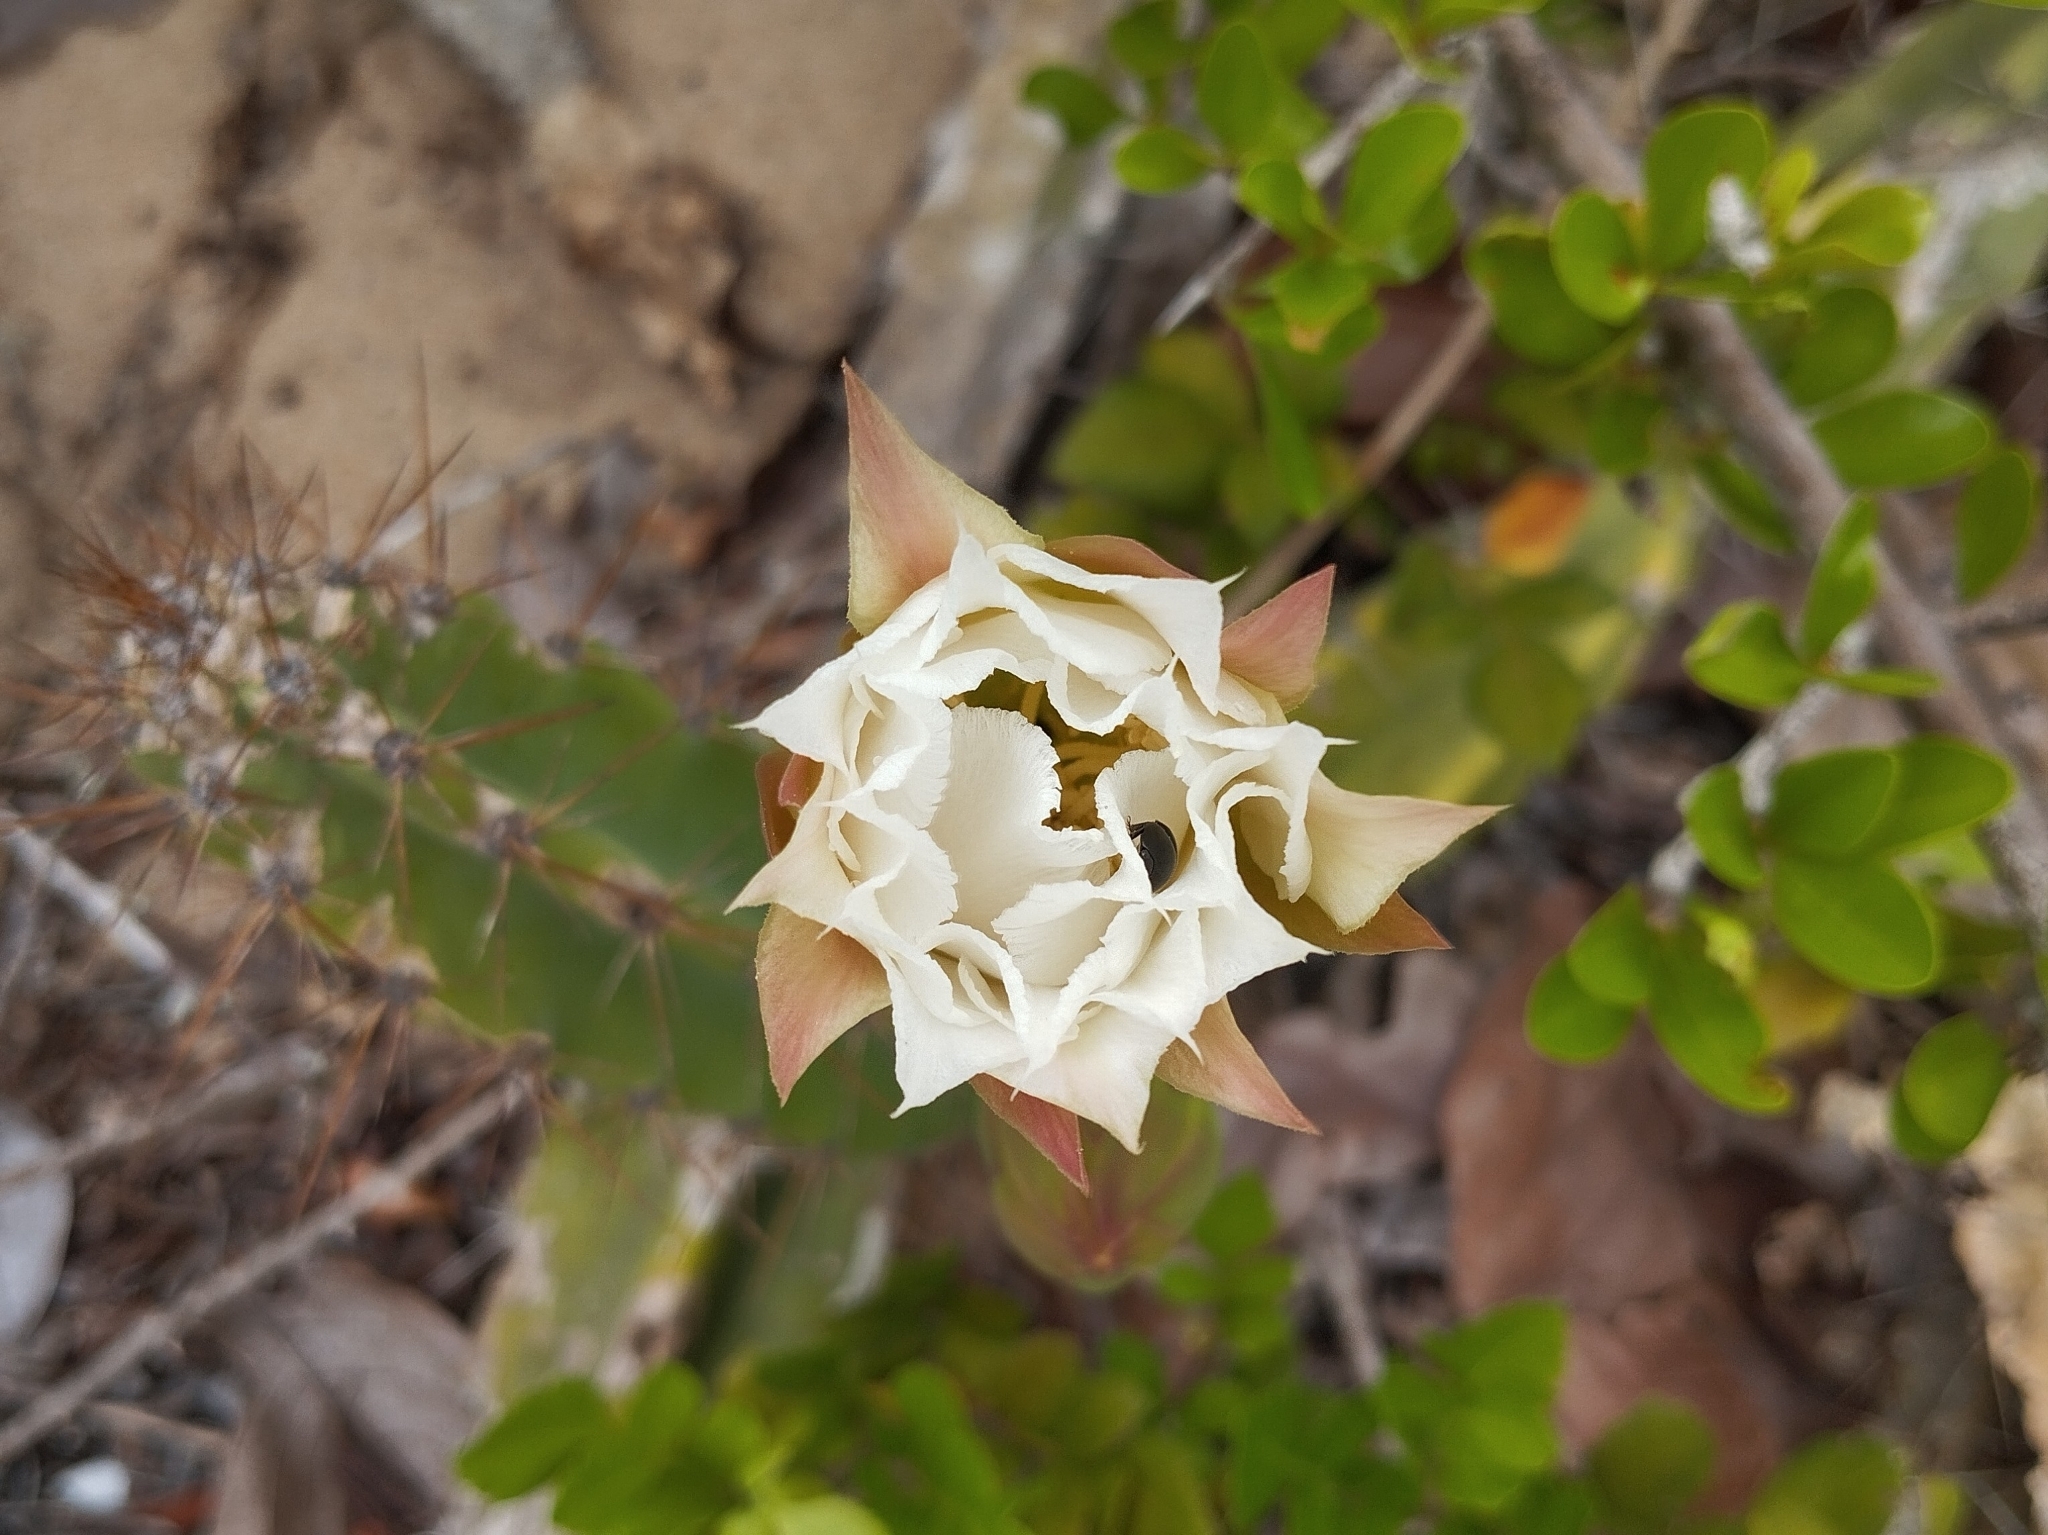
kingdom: Plantae
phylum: Tracheophyta
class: Magnoliopsida
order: Caryophyllales
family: Cactaceae
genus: Cereus
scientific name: Cereus fernambucensis
